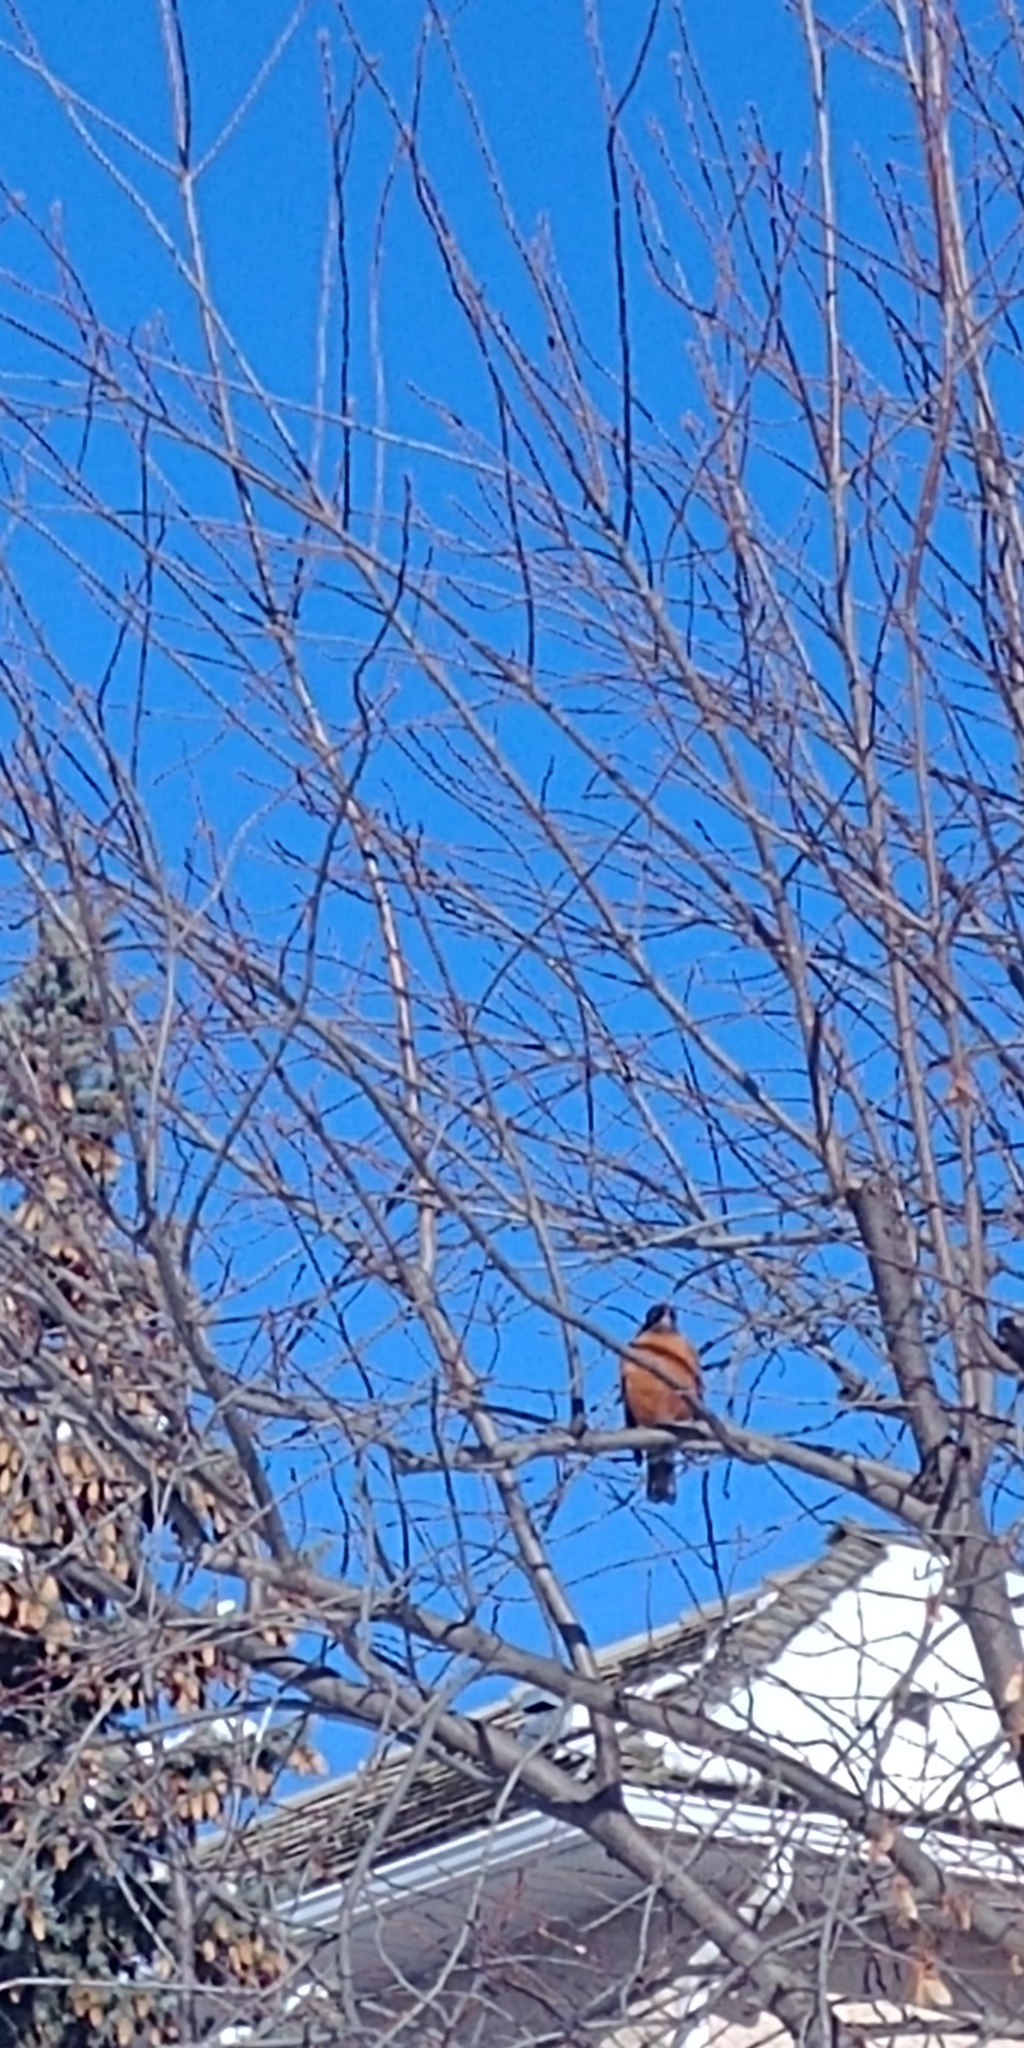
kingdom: Animalia
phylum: Chordata
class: Aves
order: Passeriformes
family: Turdidae
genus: Turdus
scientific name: Turdus migratorius
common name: American robin
